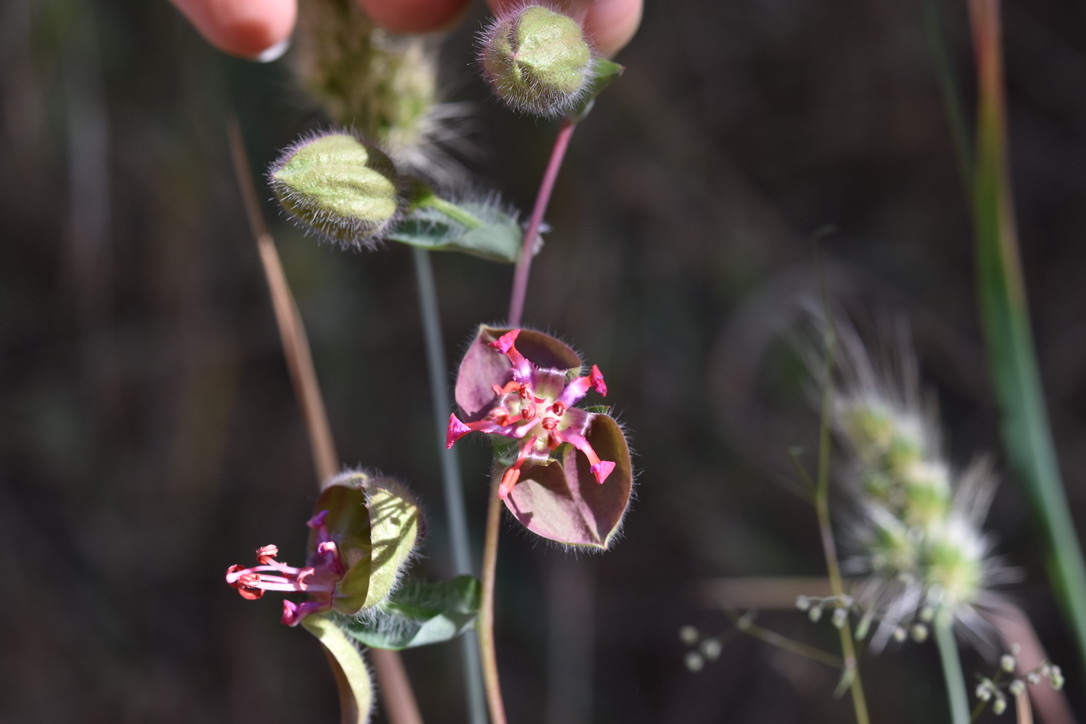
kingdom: Plantae
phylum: Tracheophyta
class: Magnoliopsida
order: Myrtales
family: Onagraceae
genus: Clarkia
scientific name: Clarkia unguiculata
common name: Clarkia
